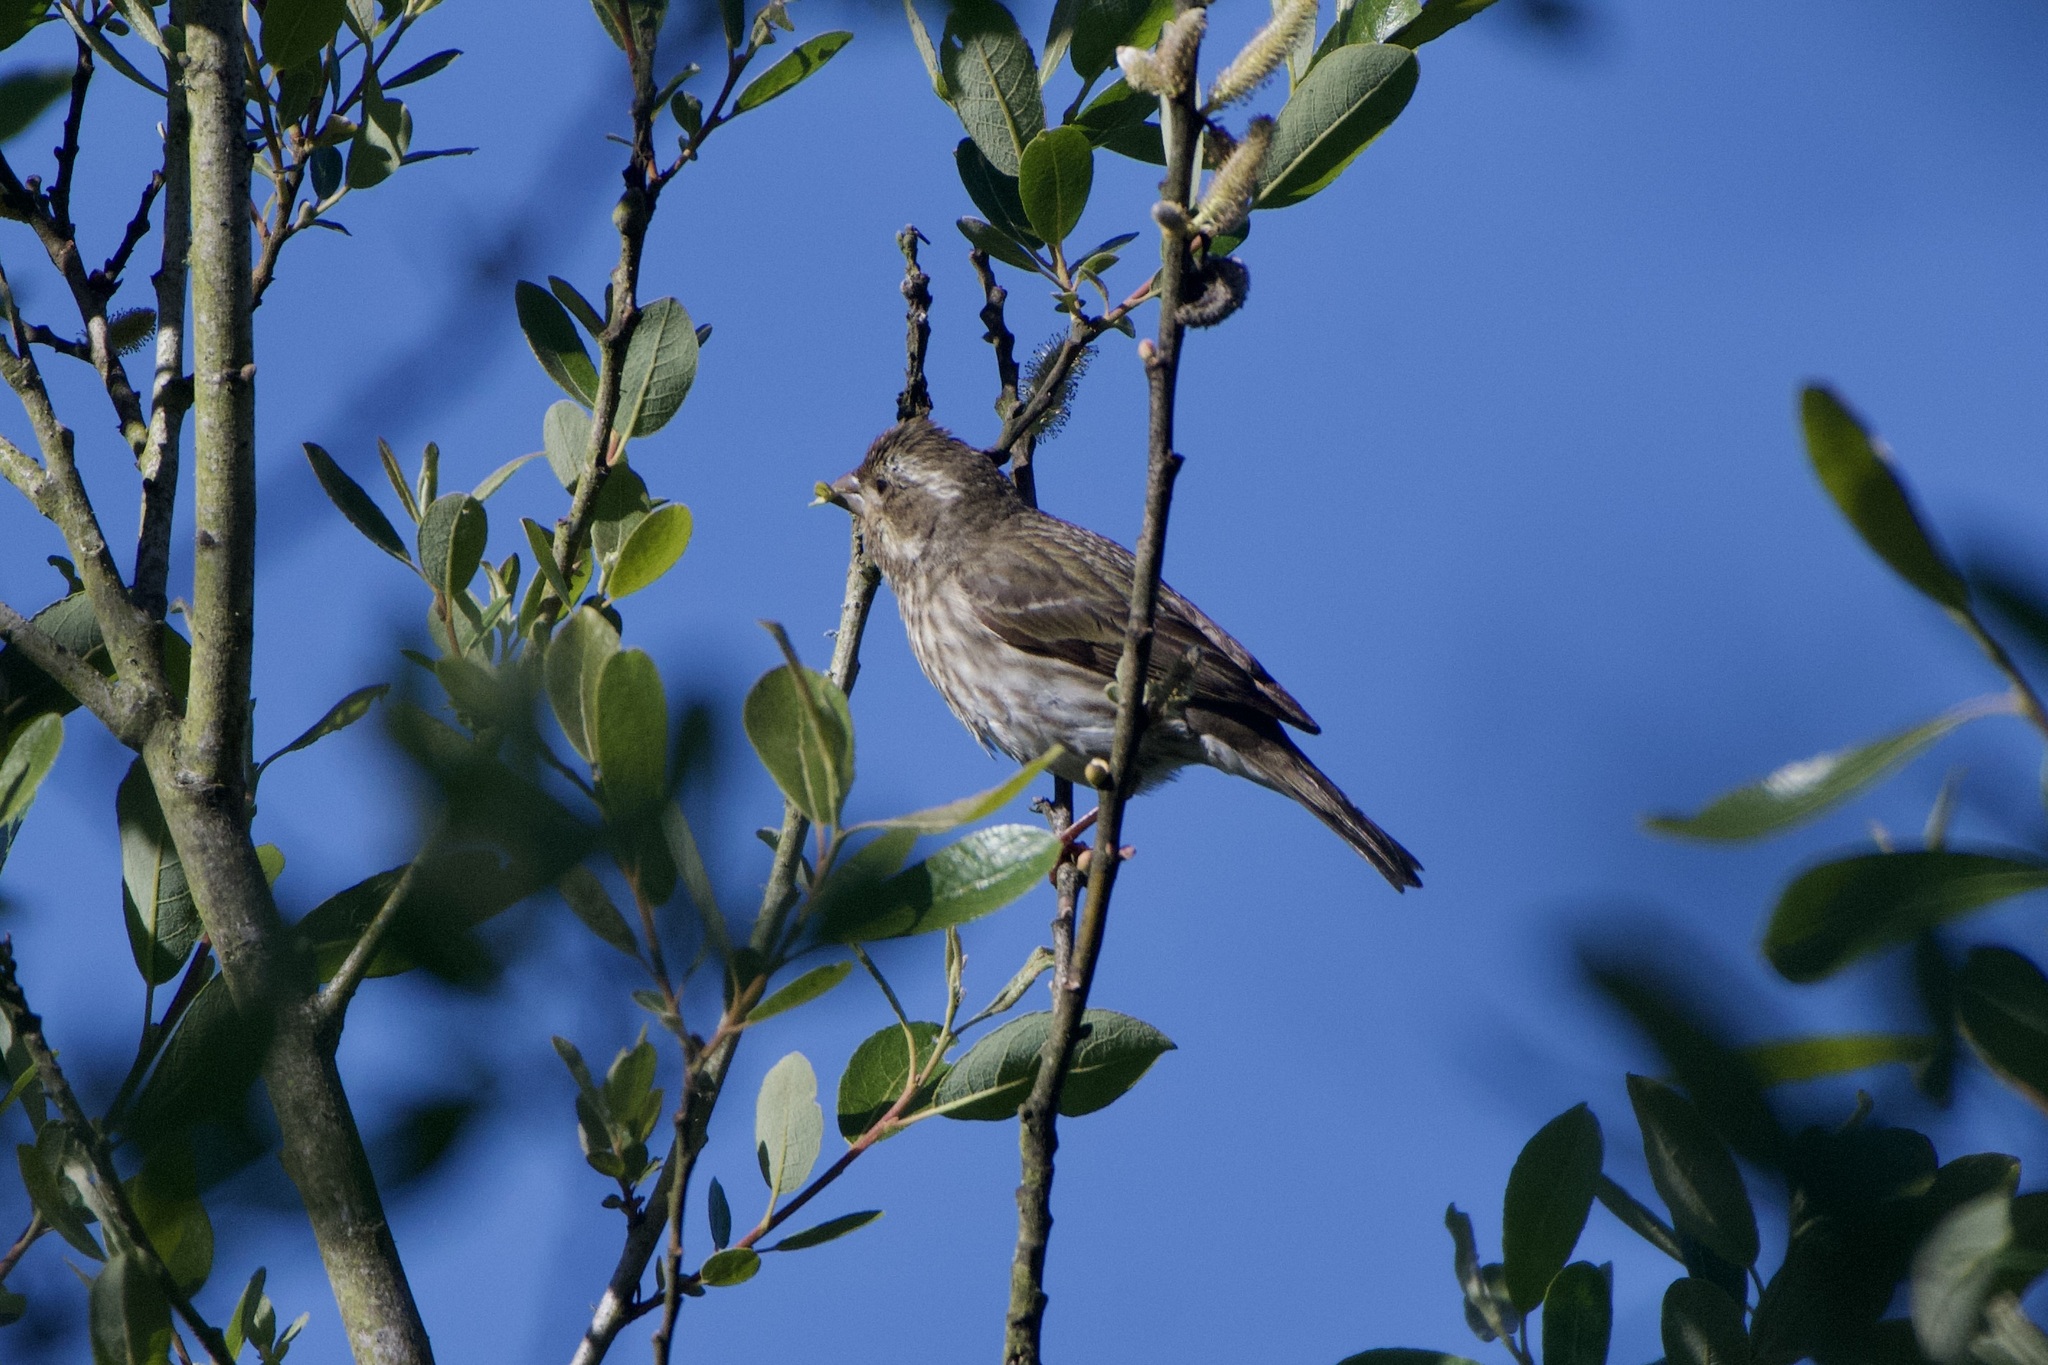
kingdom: Animalia
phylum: Chordata
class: Aves
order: Passeriformes
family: Fringillidae
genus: Haemorhous
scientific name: Haemorhous purpureus
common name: Purple finch
